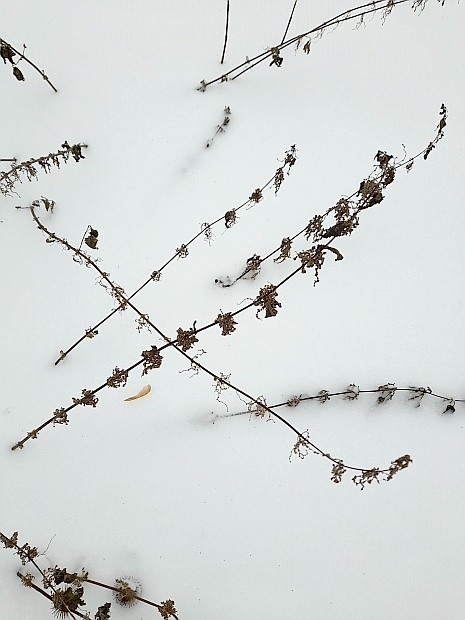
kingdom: Plantae
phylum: Tracheophyta
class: Magnoliopsida
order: Rosales
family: Urticaceae
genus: Urtica
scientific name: Urtica dioica
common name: Common nettle
